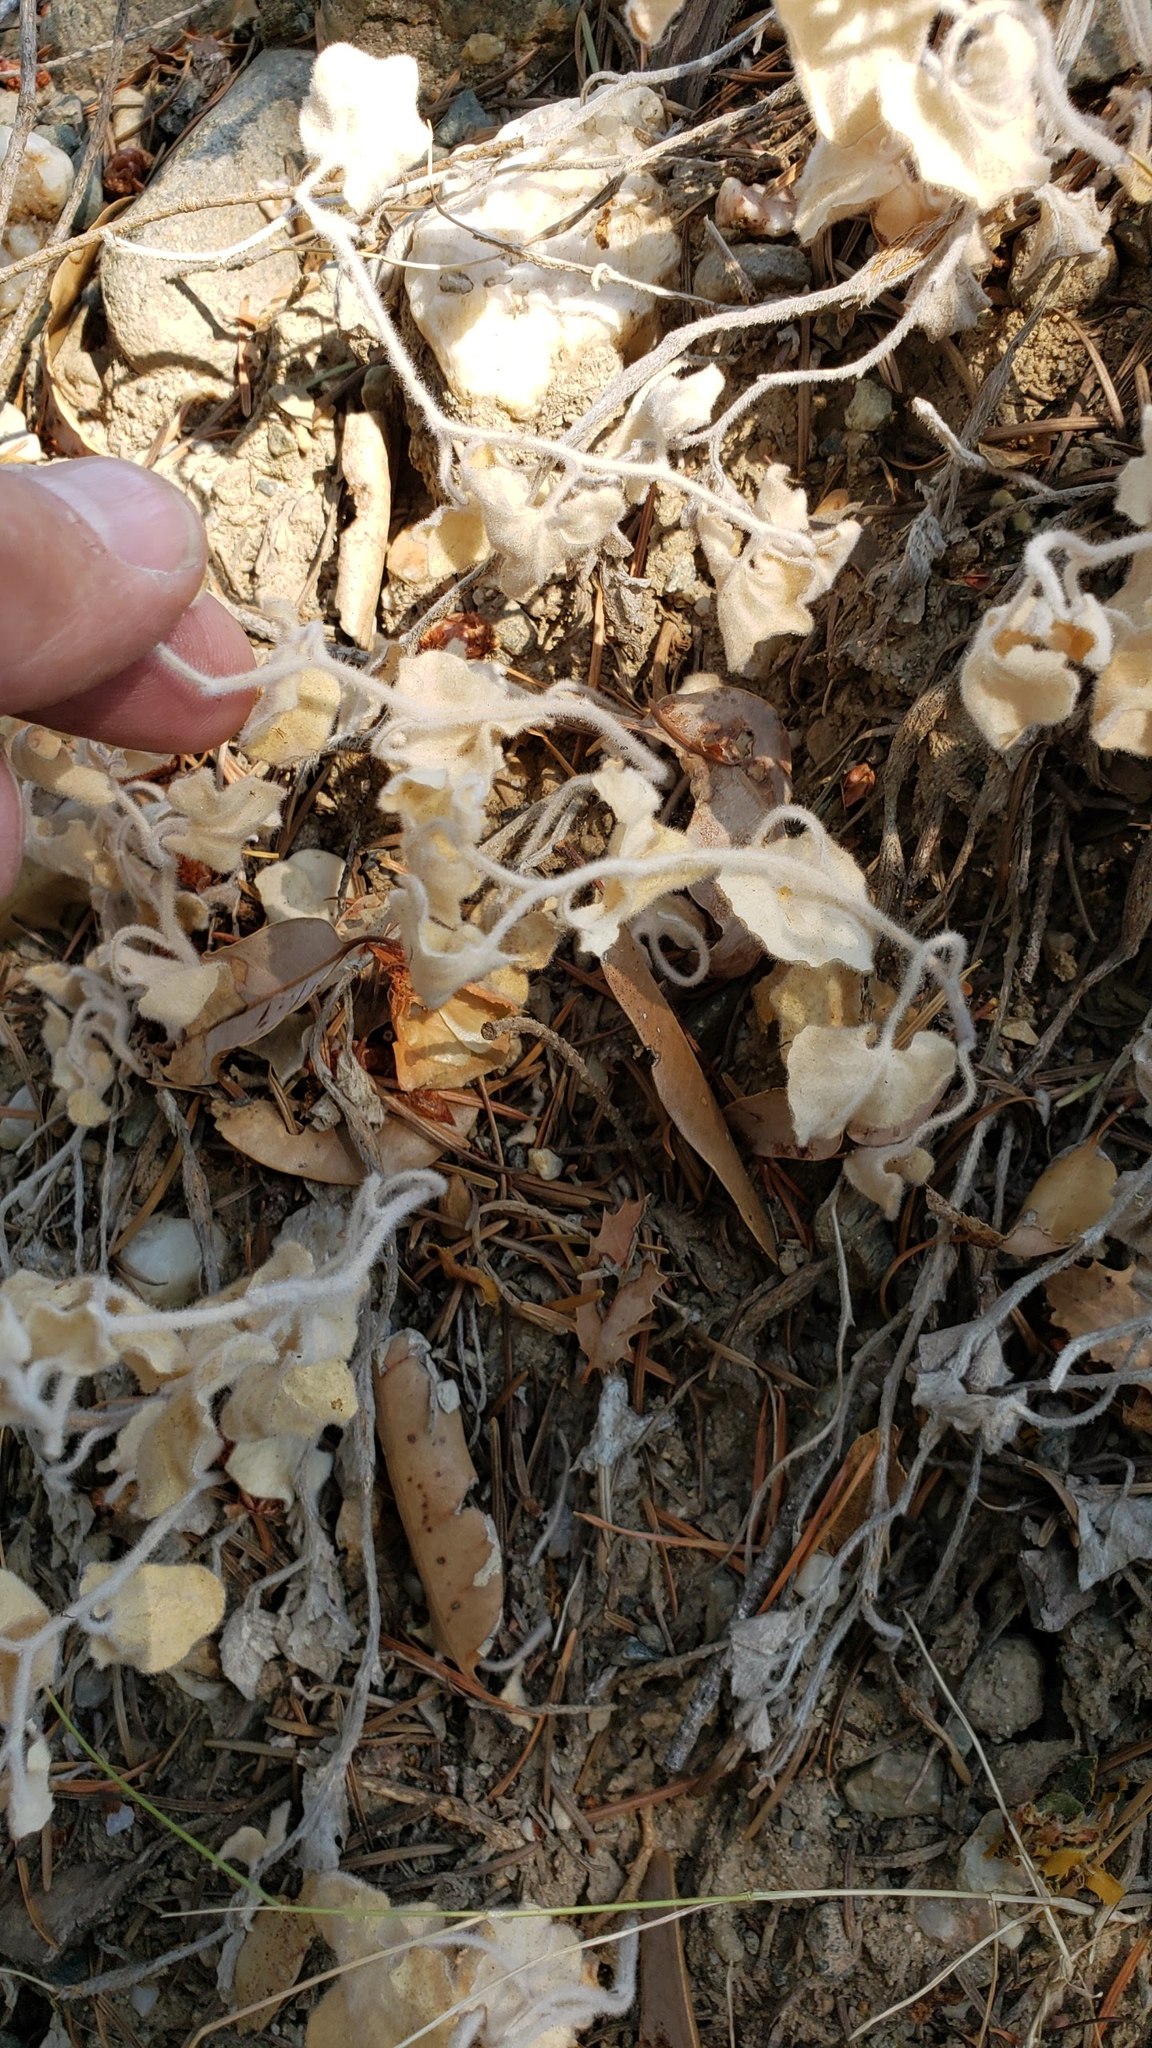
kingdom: Plantae
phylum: Tracheophyta
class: Magnoliopsida
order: Solanales
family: Convolvulaceae
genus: Calystegia
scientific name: Calystegia malacophylla
